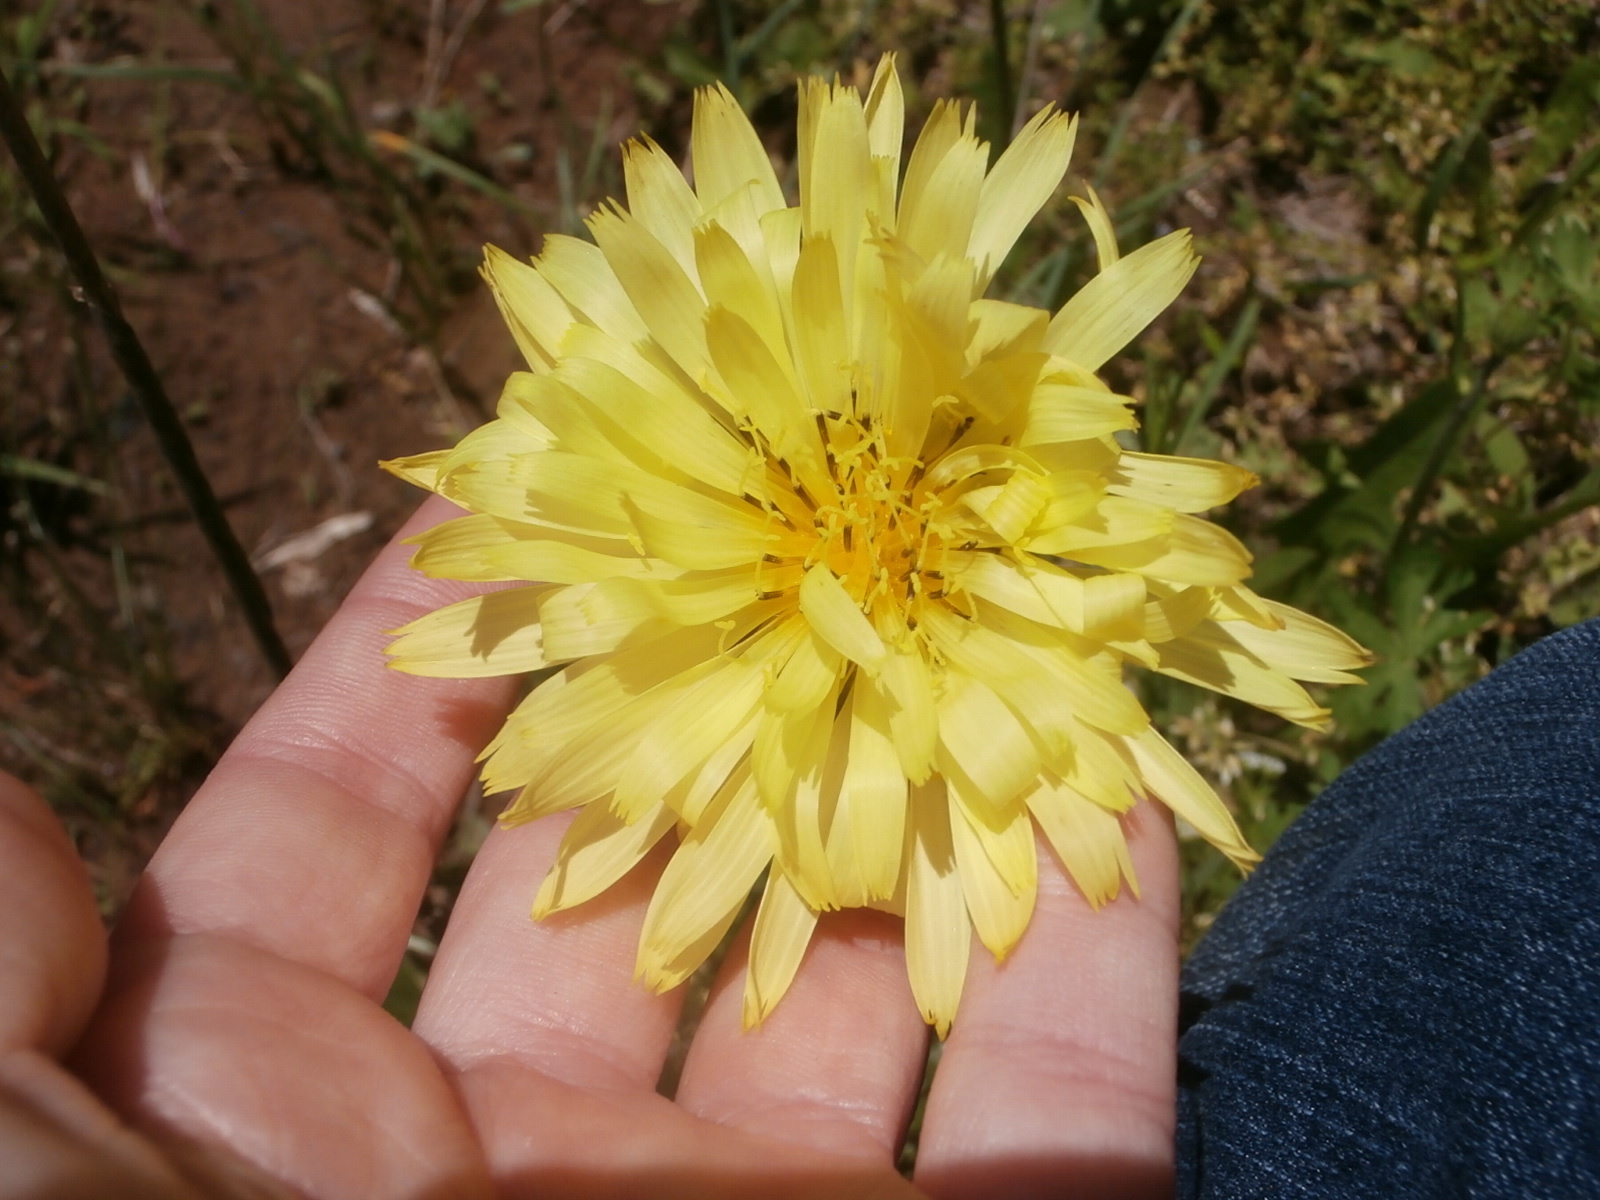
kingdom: Plantae
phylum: Tracheophyta
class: Magnoliopsida
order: Asterales
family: Asteraceae
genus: Pyrrhopappus
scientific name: Pyrrhopappus pauciflorus
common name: Texas false dandelion
